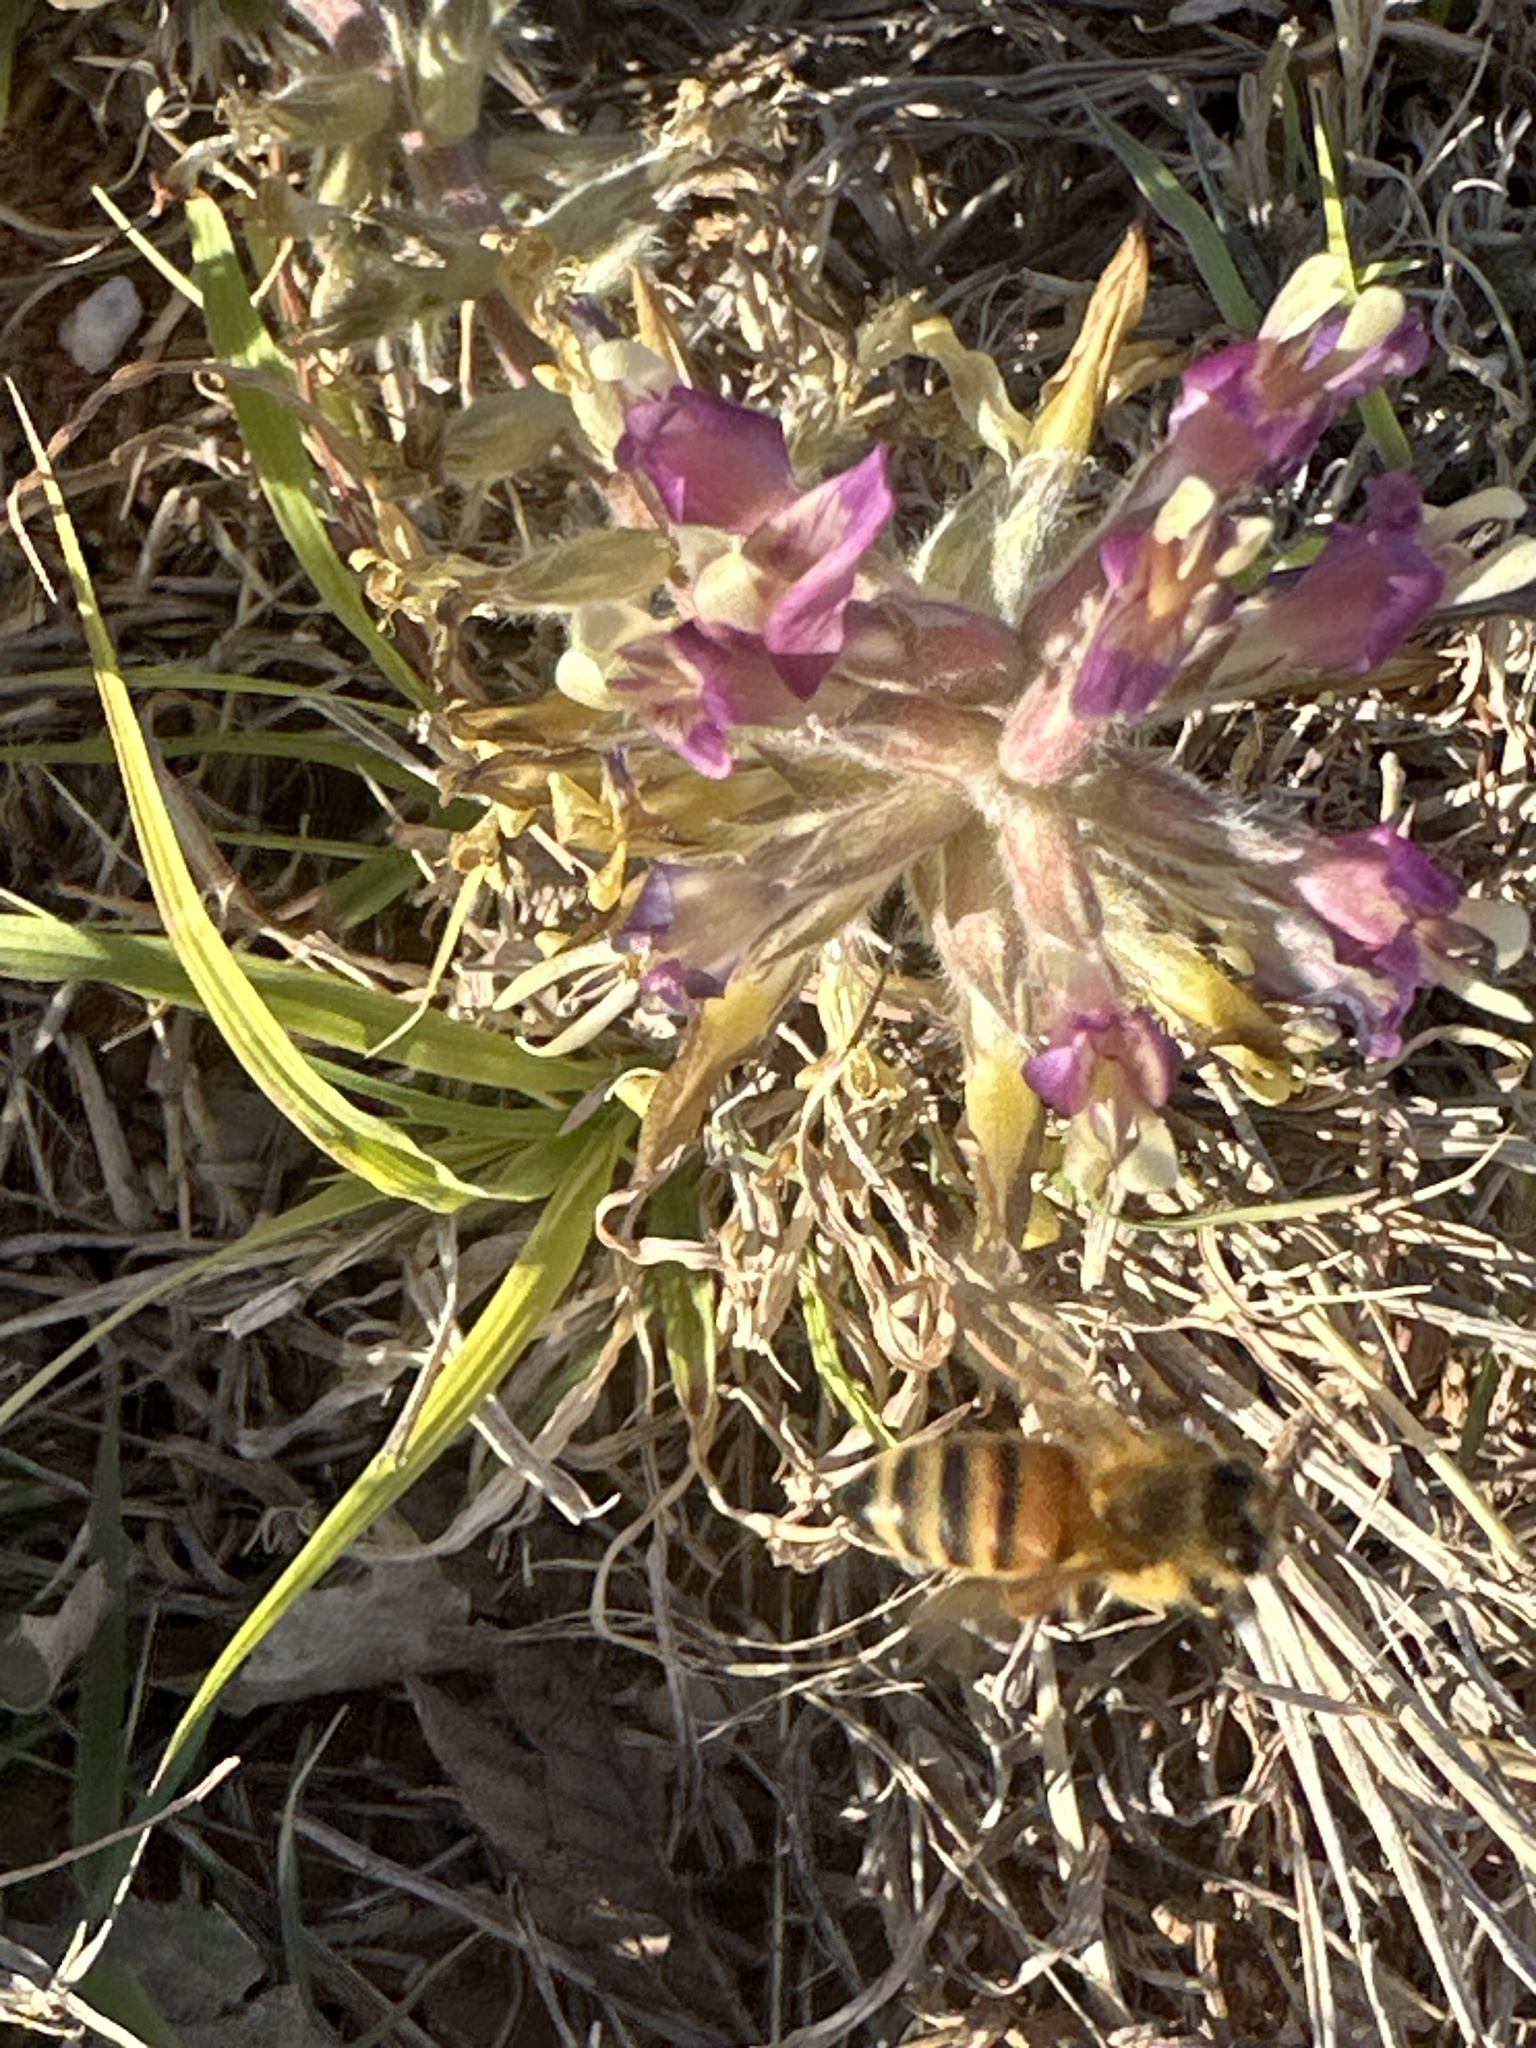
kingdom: Animalia
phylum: Arthropoda
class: Insecta
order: Hymenoptera
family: Apidae
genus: Apis
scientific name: Apis mellifera
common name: Honey bee
